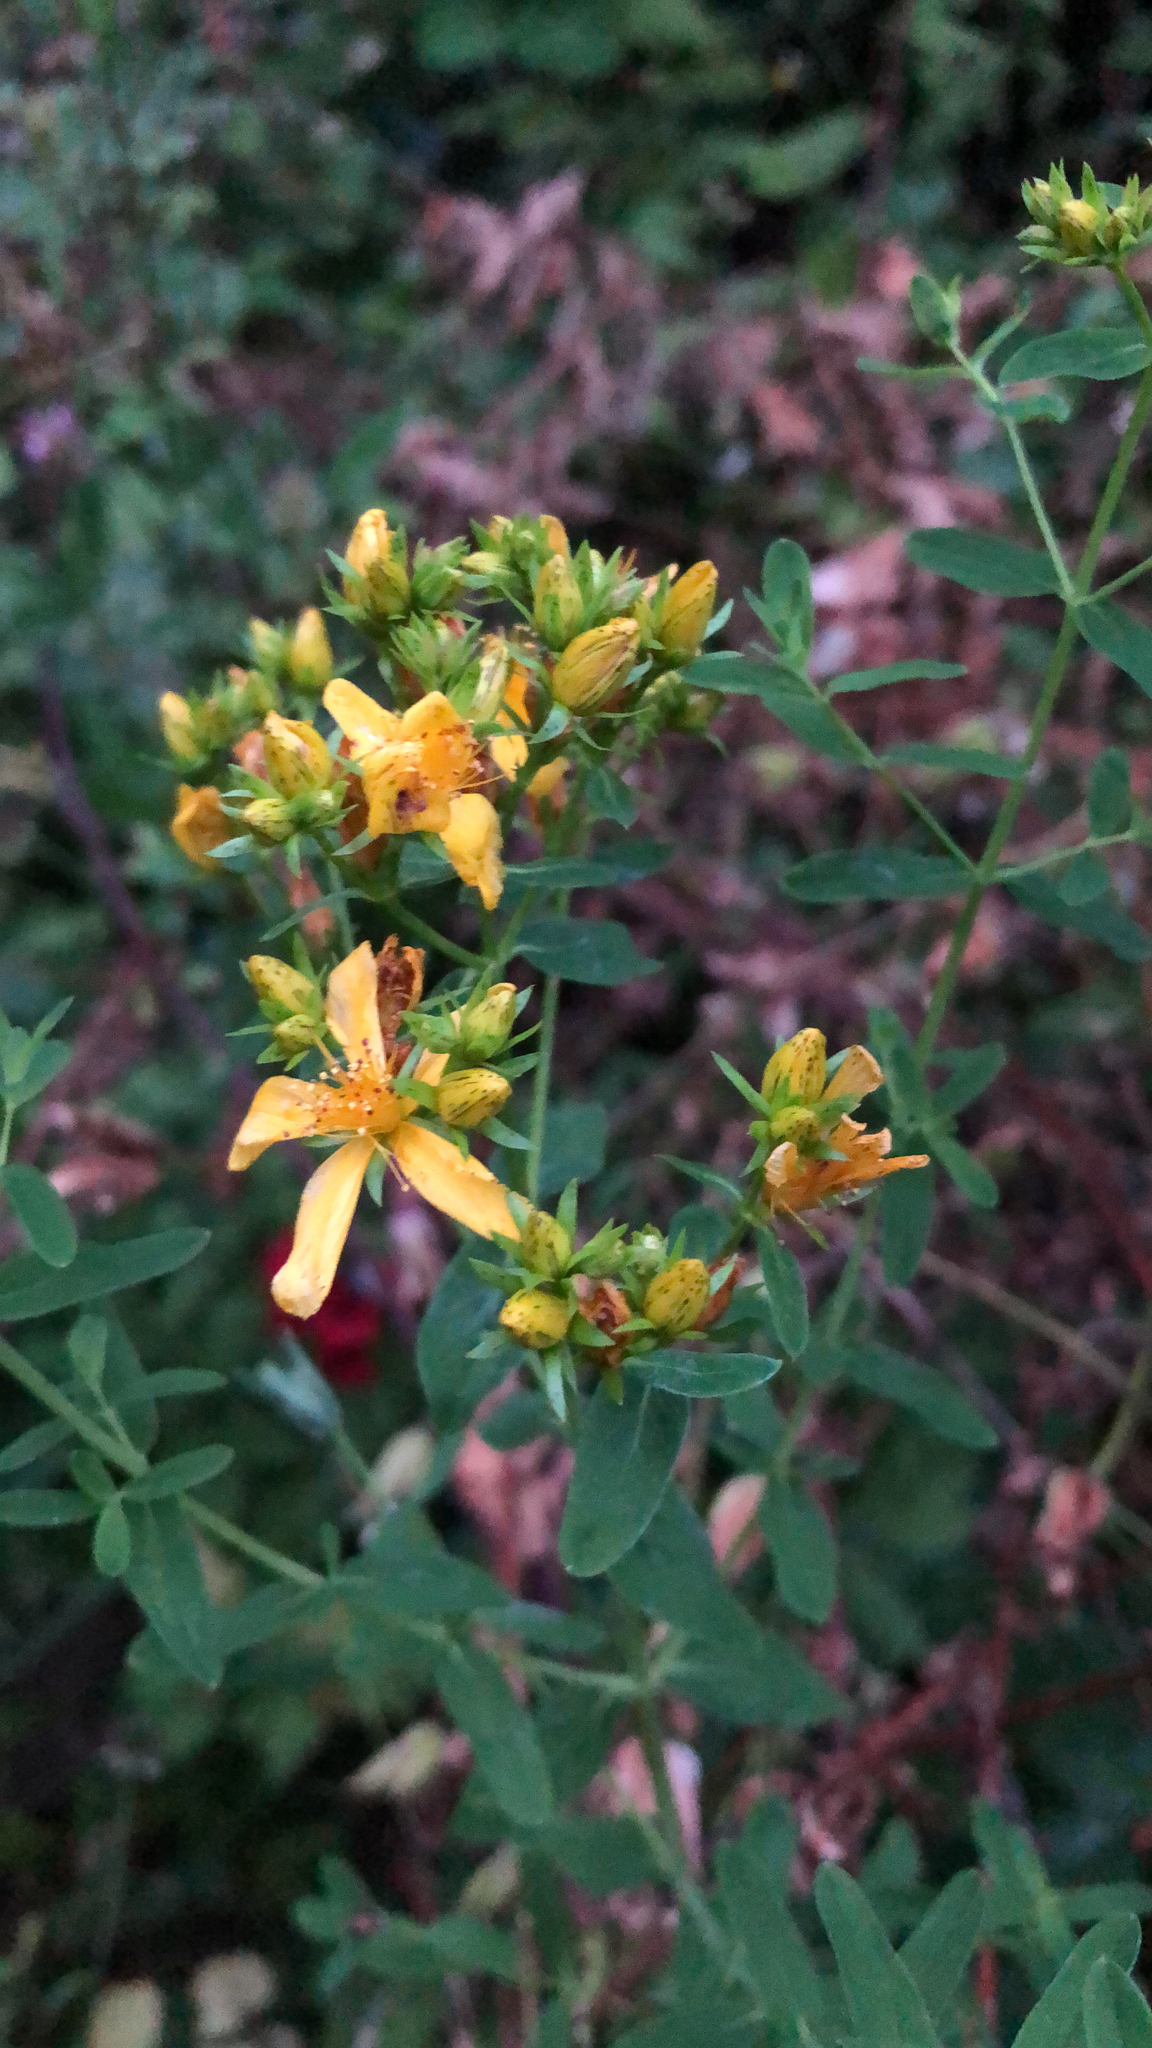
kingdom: Plantae
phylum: Tracheophyta
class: Magnoliopsida
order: Malpighiales
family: Hypericaceae
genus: Hypericum
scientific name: Hypericum perforatum
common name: Common st. johnswort
